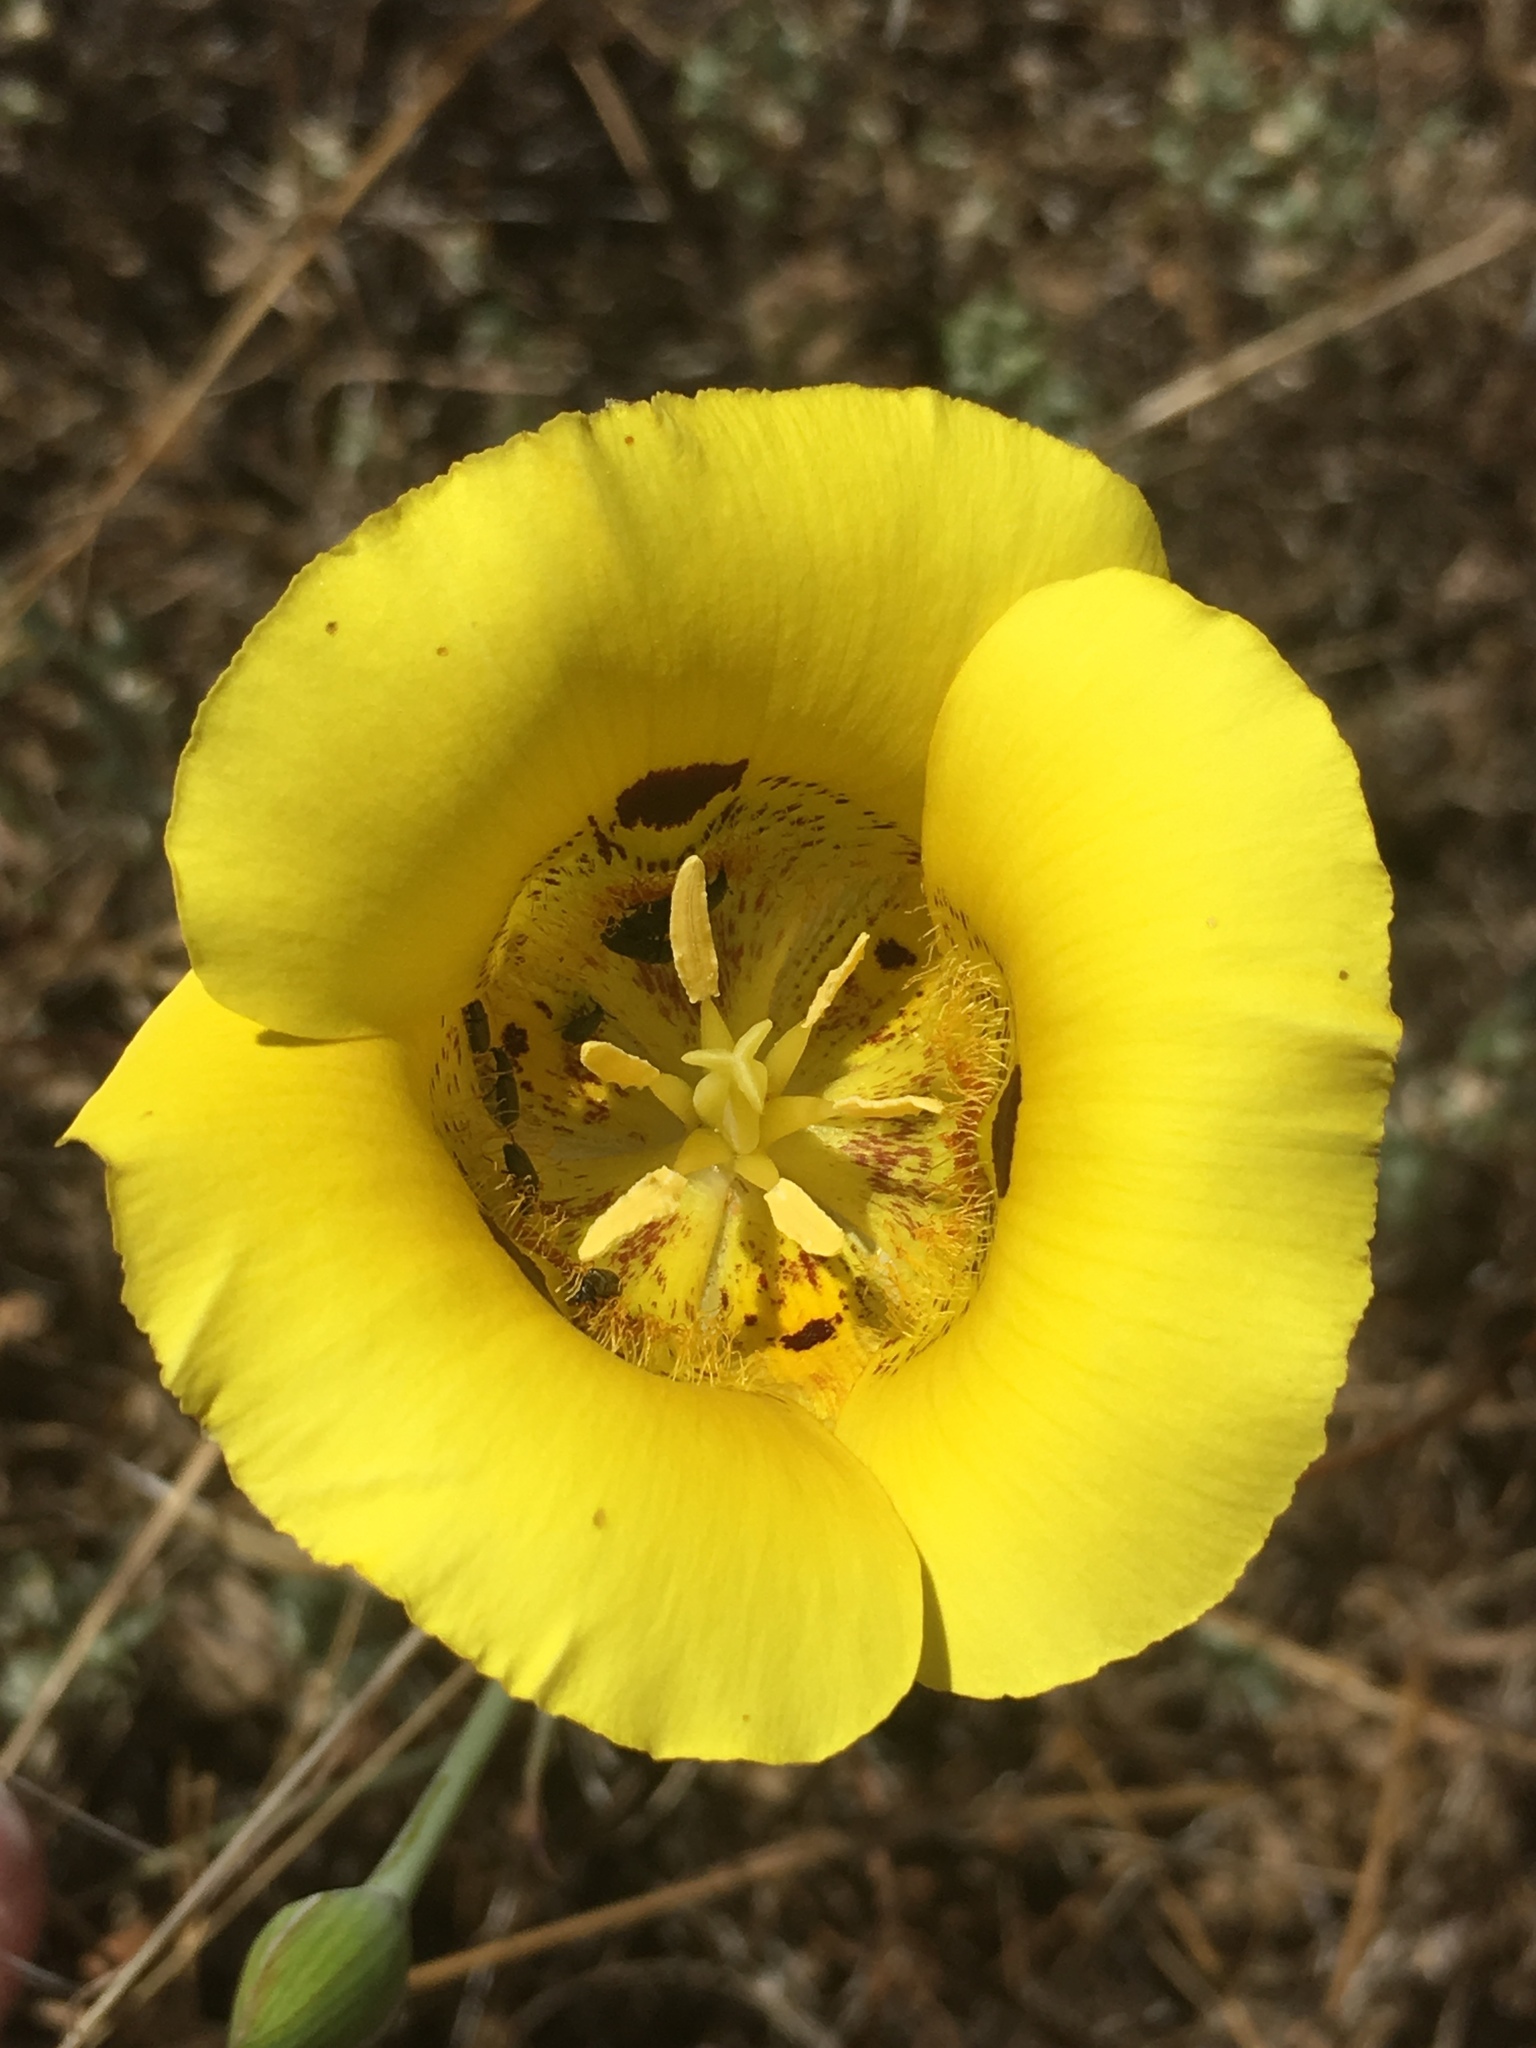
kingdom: Plantae
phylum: Tracheophyta
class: Liliopsida
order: Liliales
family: Liliaceae
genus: Calochortus
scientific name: Calochortus luteus
